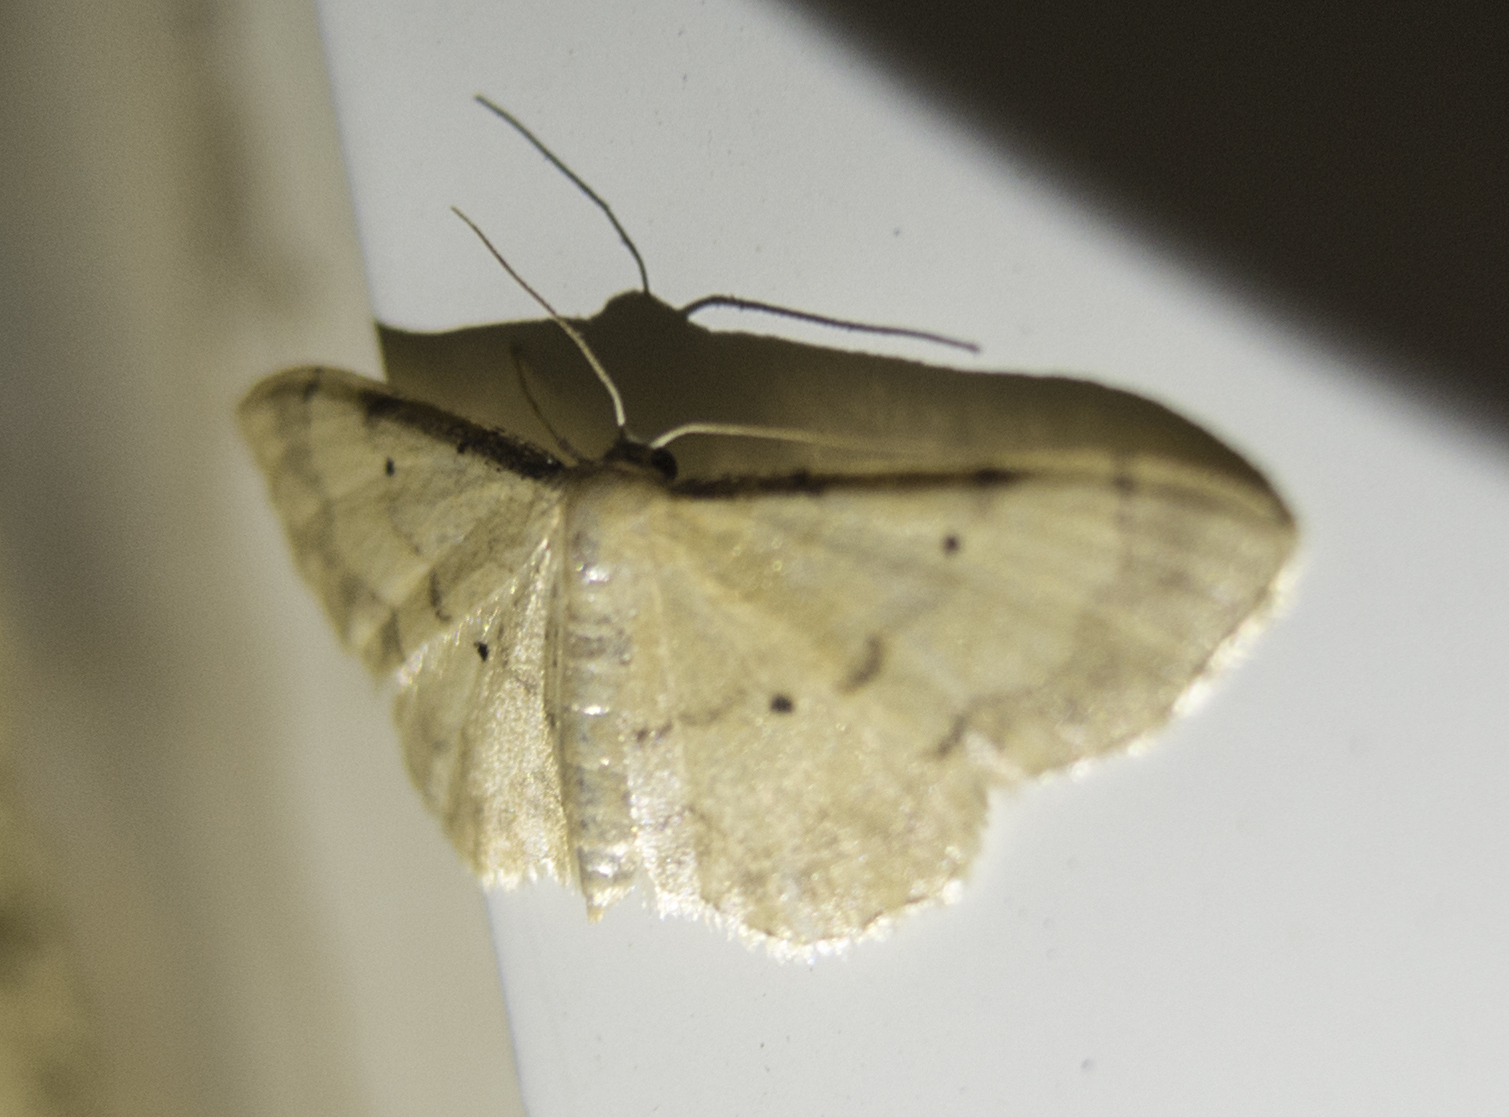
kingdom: Animalia
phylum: Arthropoda
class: Insecta
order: Lepidoptera
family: Geometridae
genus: Idaea
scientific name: Idaea politaria
